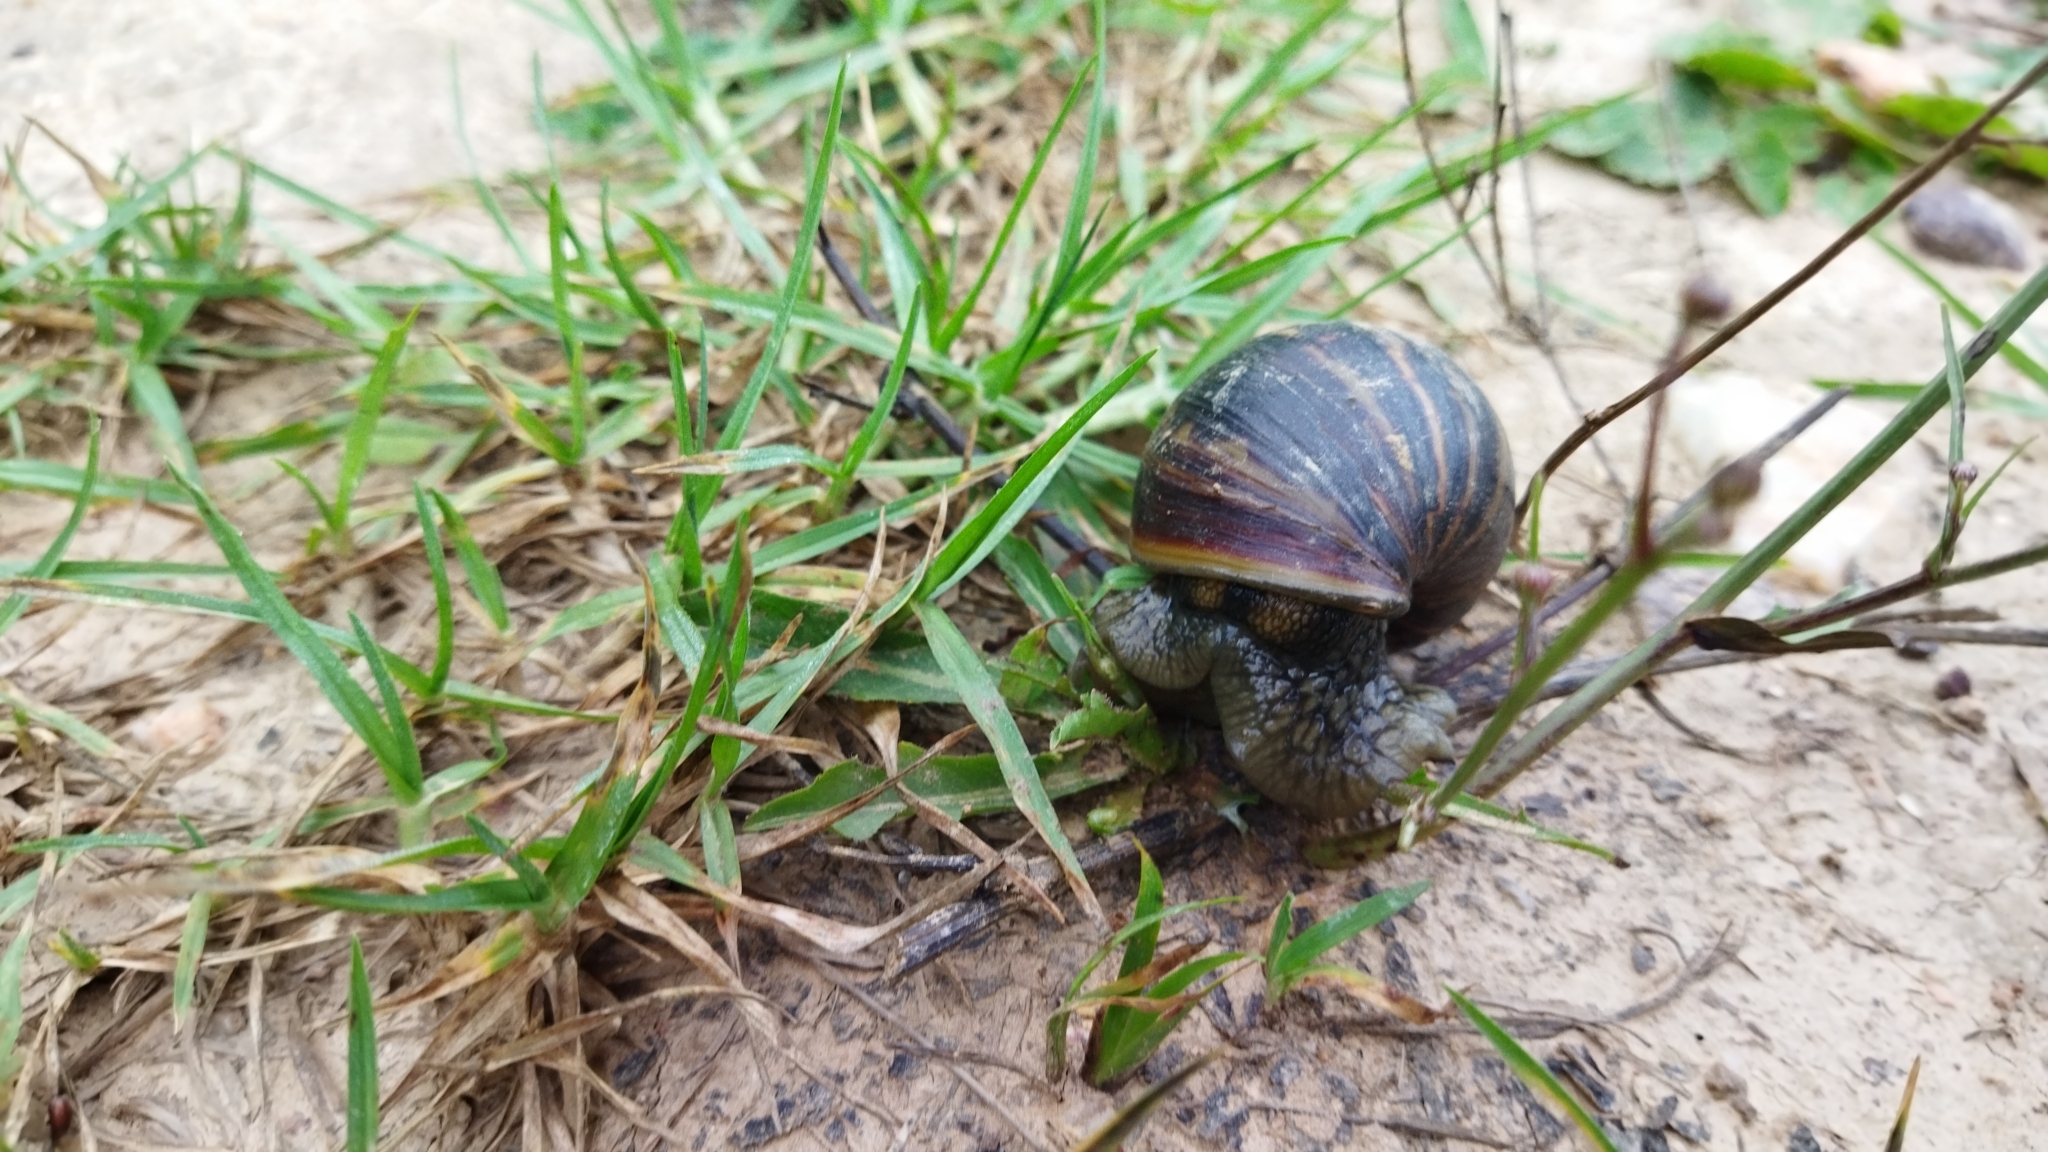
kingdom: Animalia
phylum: Mollusca
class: Gastropoda
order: Stylommatophora
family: Achatinidae
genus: Cochlitoma
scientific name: Cochlitoma zebra
